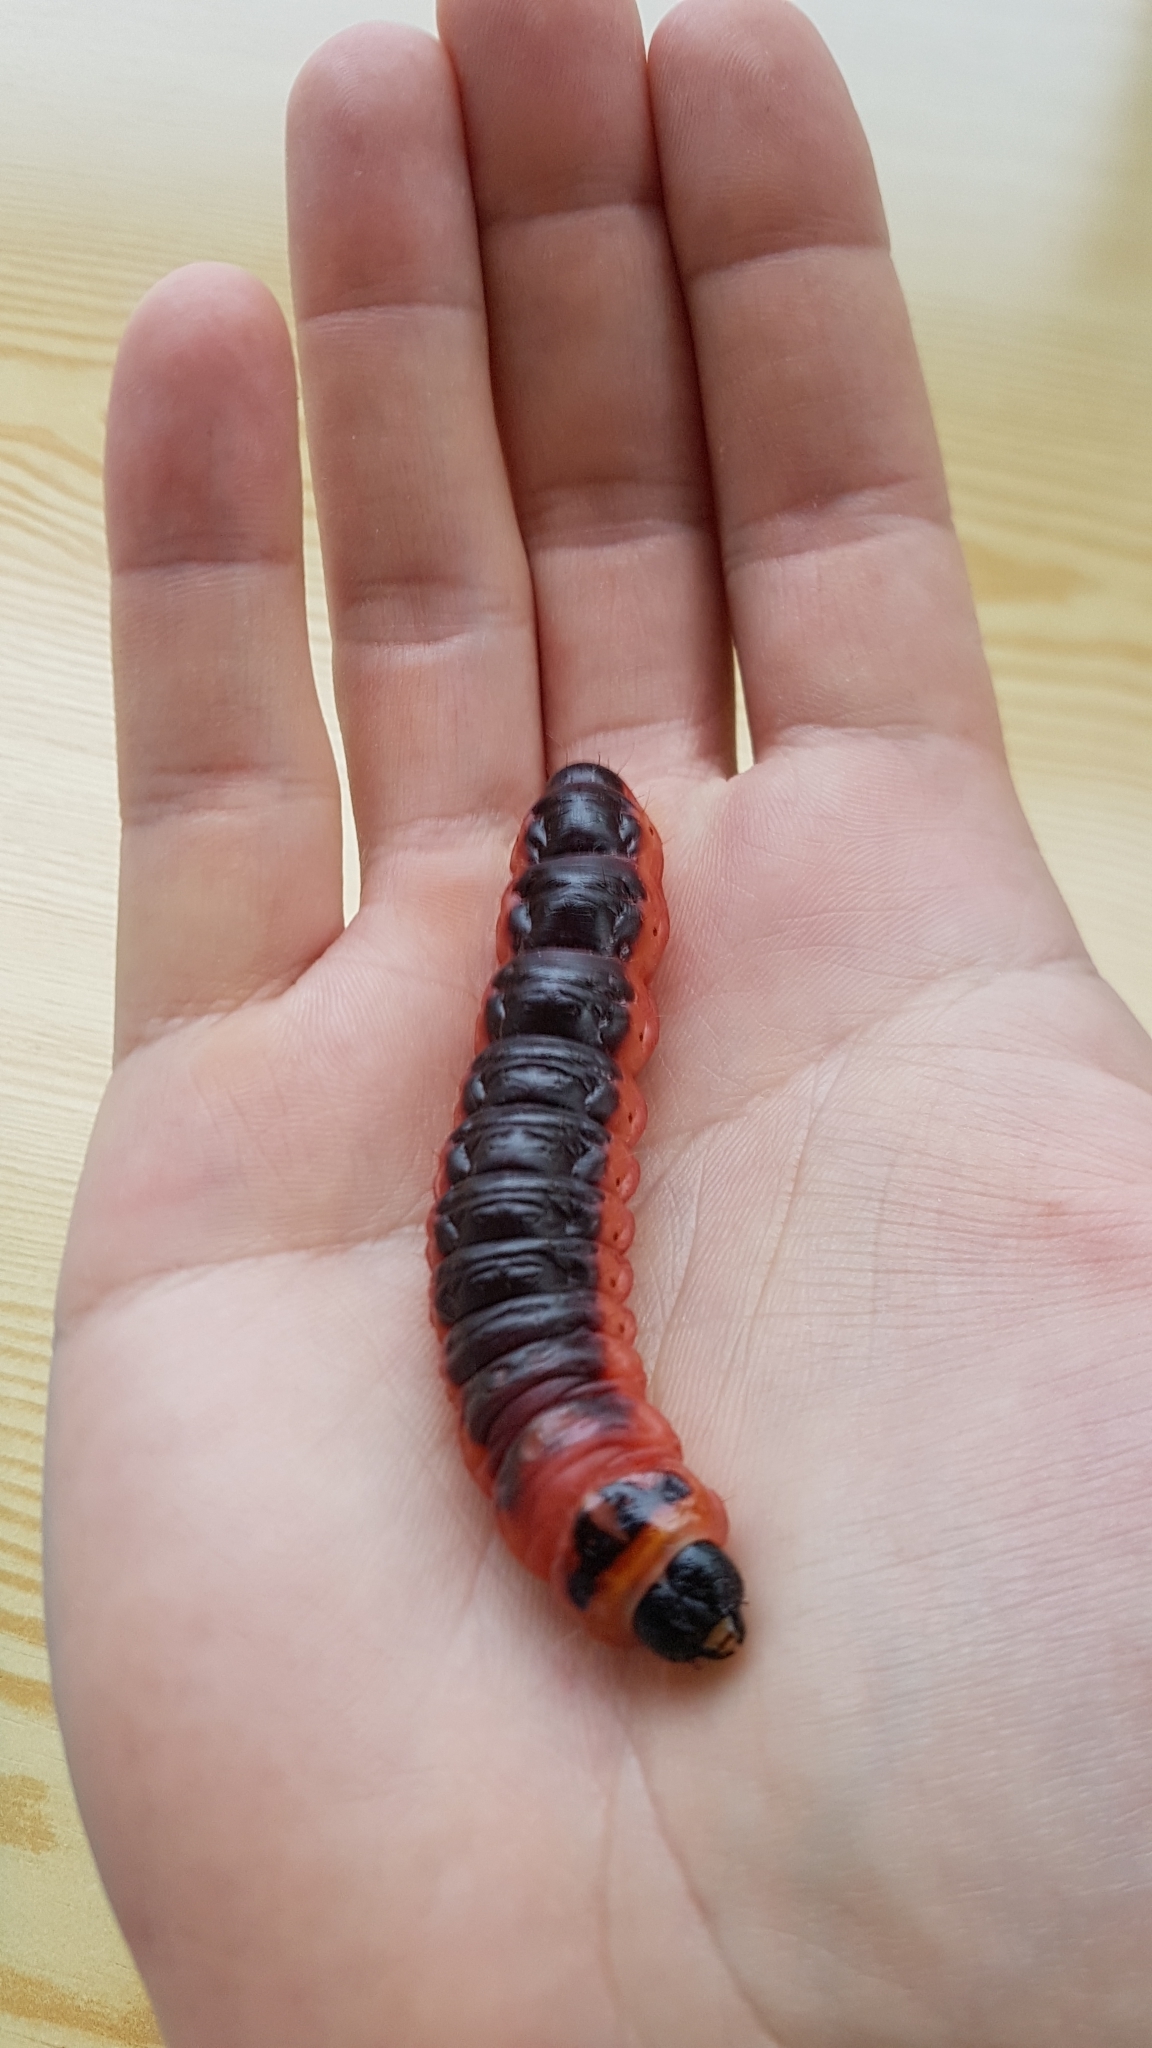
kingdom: Animalia
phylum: Arthropoda
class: Insecta
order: Lepidoptera
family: Cossidae
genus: Cossus
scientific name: Cossus cossus
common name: Goat moth
